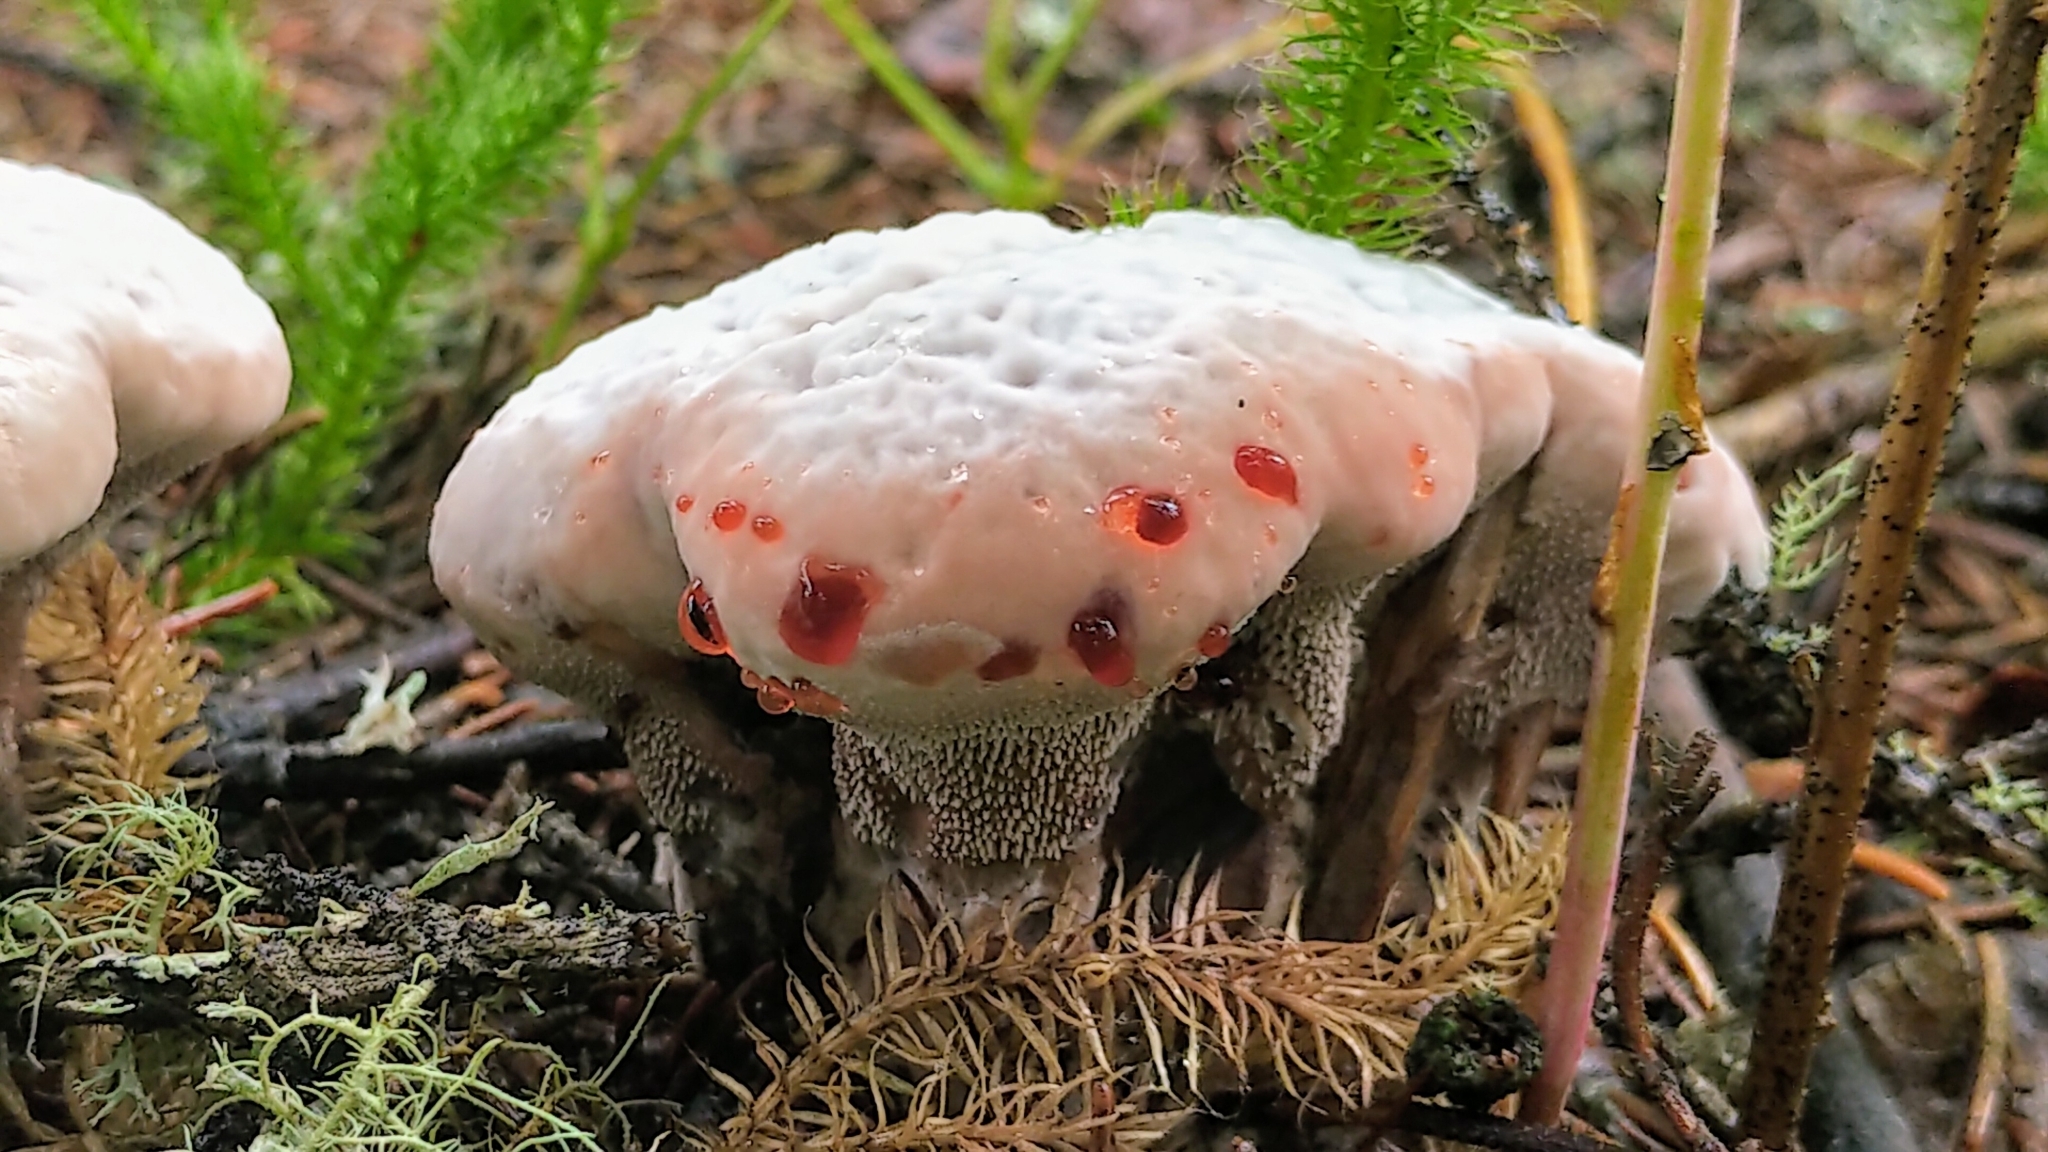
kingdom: Fungi
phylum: Basidiomycota
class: Agaricomycetes
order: Thelephorales
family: Bankeraceae
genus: Hydnellum
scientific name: Hydnellum peckii
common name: Devil's tooth
